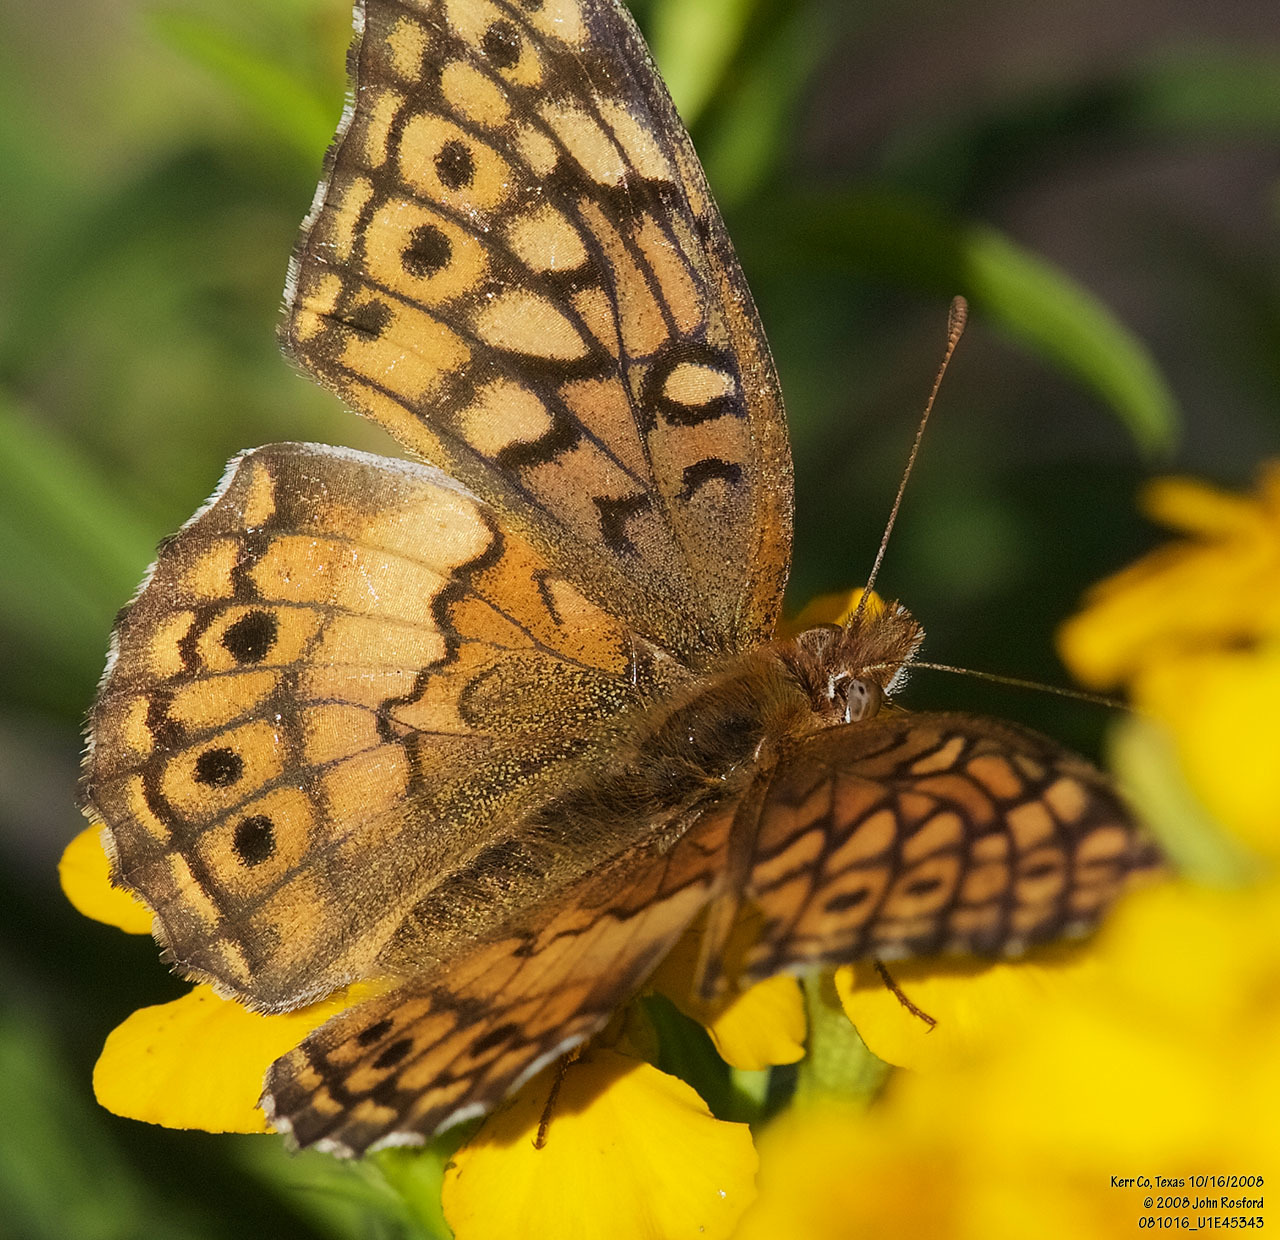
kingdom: Animalia
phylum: Arthropoda
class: Insecta
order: Lepidoptera
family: Nymphalidae
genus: Euptoieta
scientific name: Euptoieta claudia
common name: Variegated fritillary
